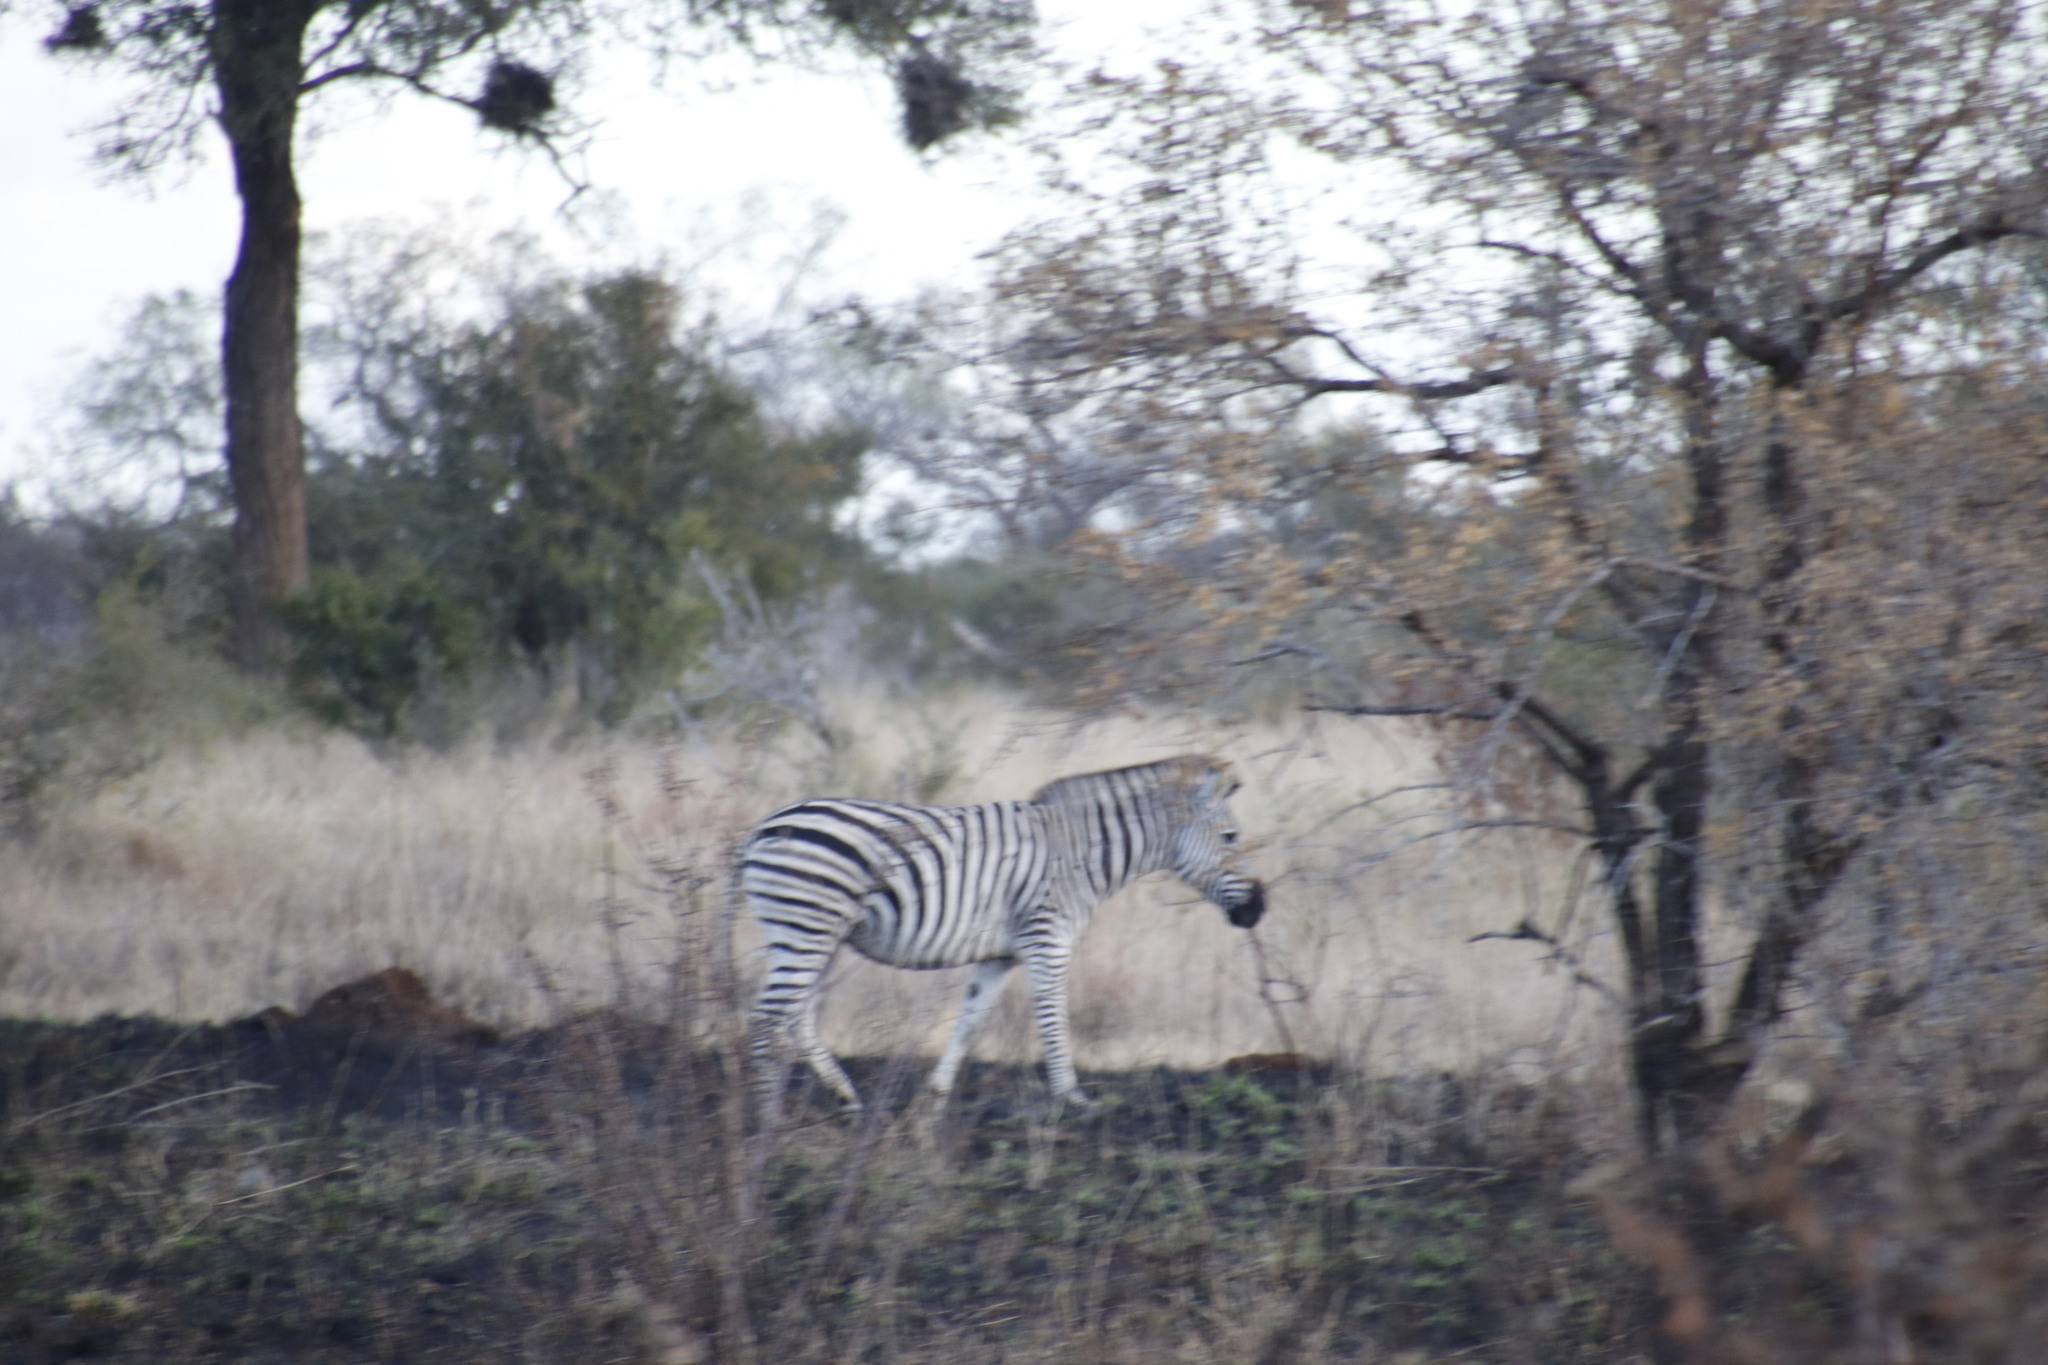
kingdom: Animalia
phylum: Chordata
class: Mammalia
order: Perissodactyla
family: Equidae
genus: Equus
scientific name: Equus quagga
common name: Plains zebra
